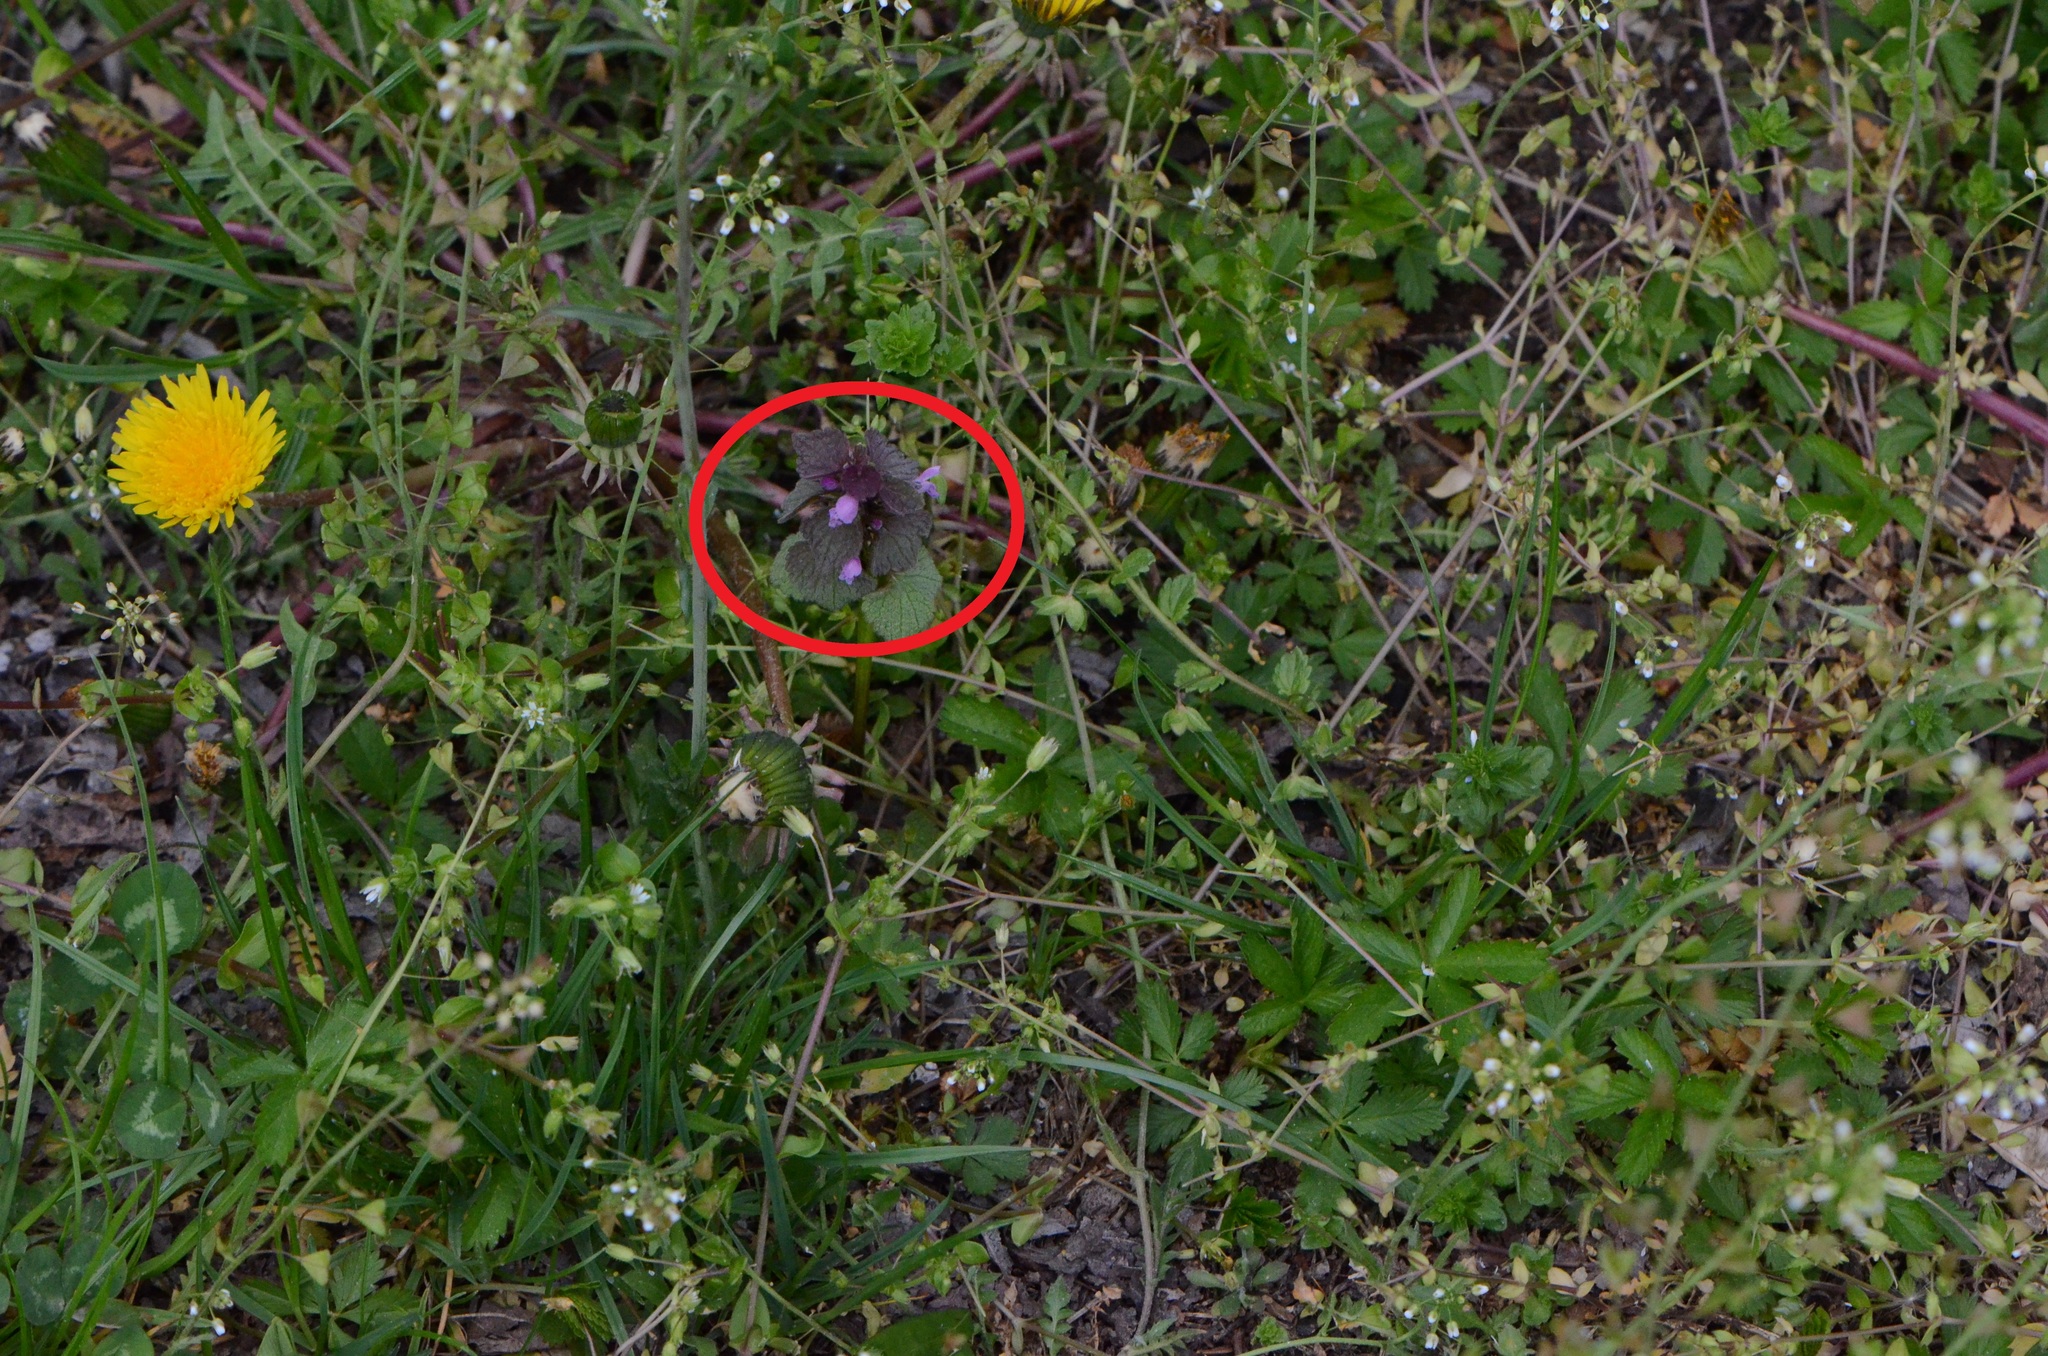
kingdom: Plantae
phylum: Tracheophyta
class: Magnoliopsida
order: Lamiales
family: Lamiaceae
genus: Lamium
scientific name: Lamium purpureum
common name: Red dead-nettle
